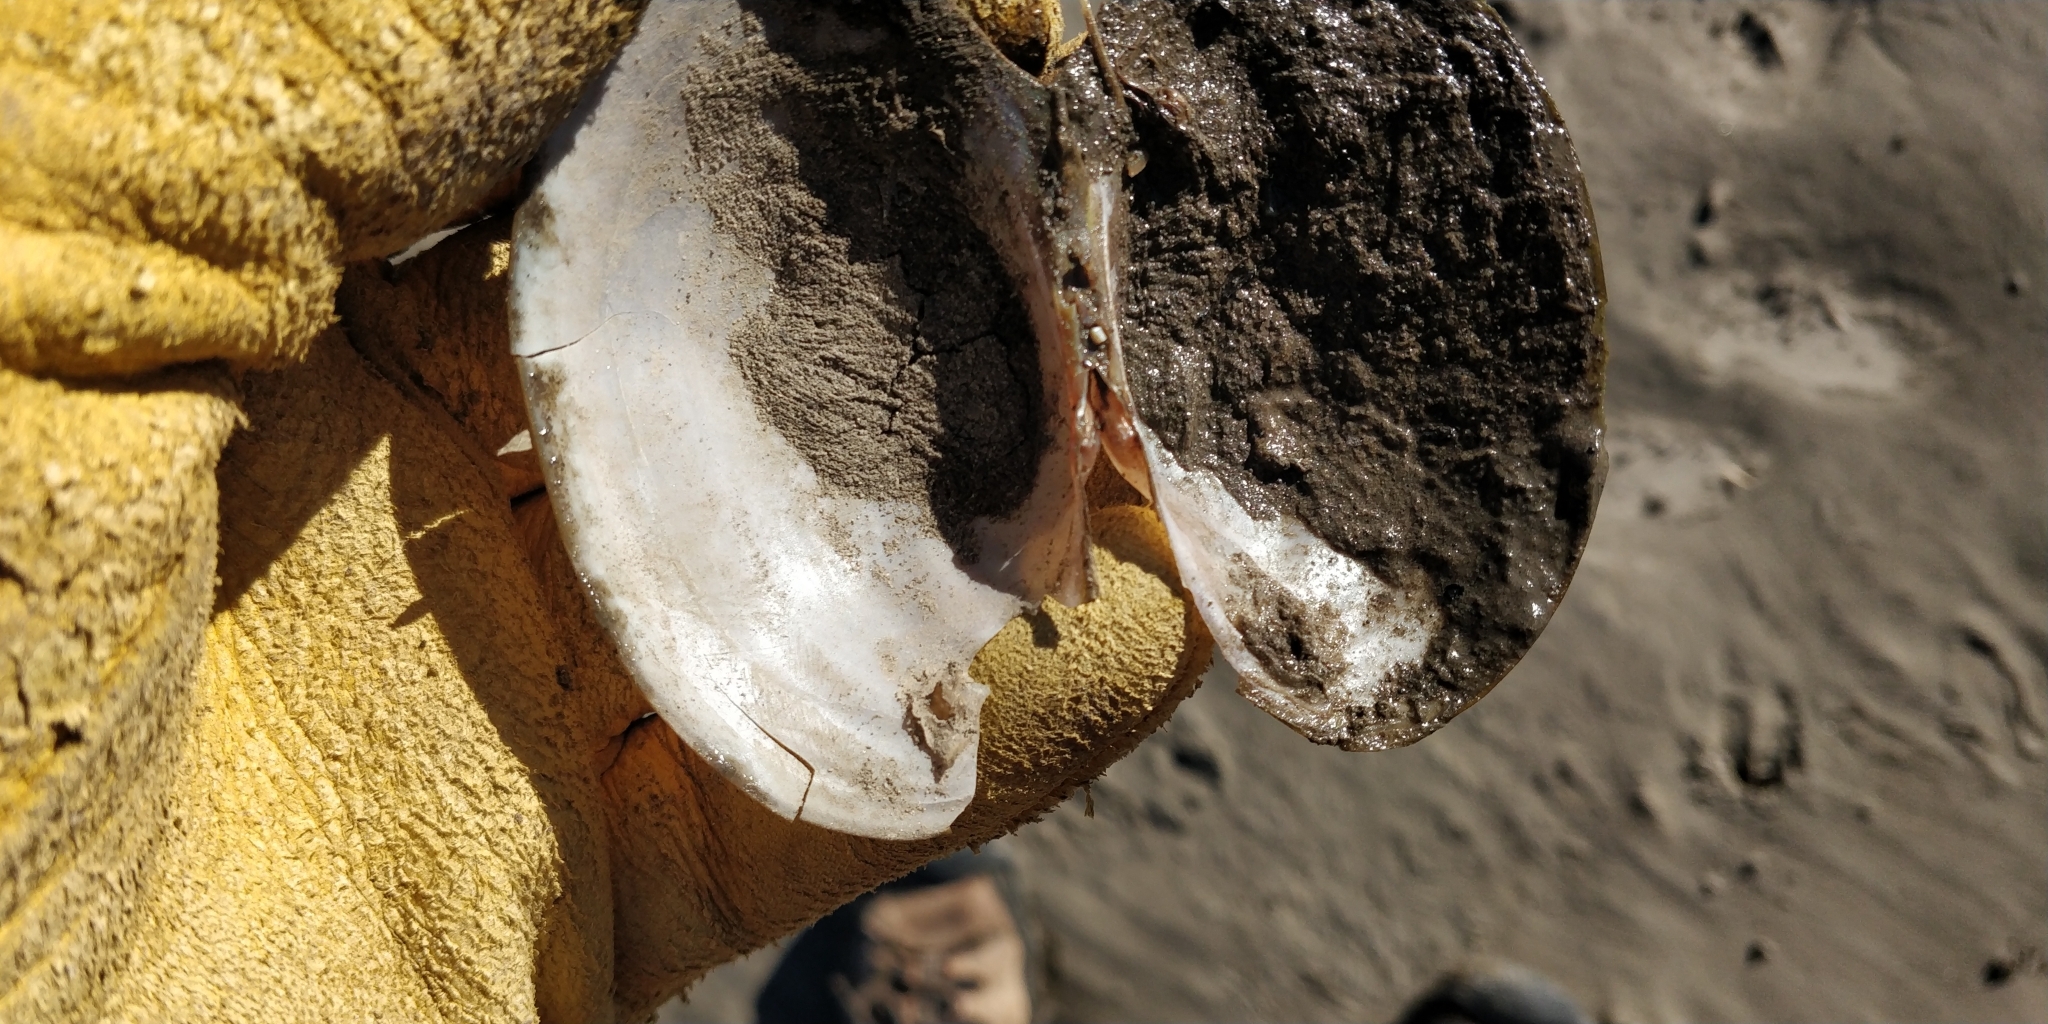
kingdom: Animalia
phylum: Mollusca
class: Bivalvia
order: Unionida
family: Unionidae
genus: Pyganodon
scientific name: Pyganodon grandis
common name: Giant floater
